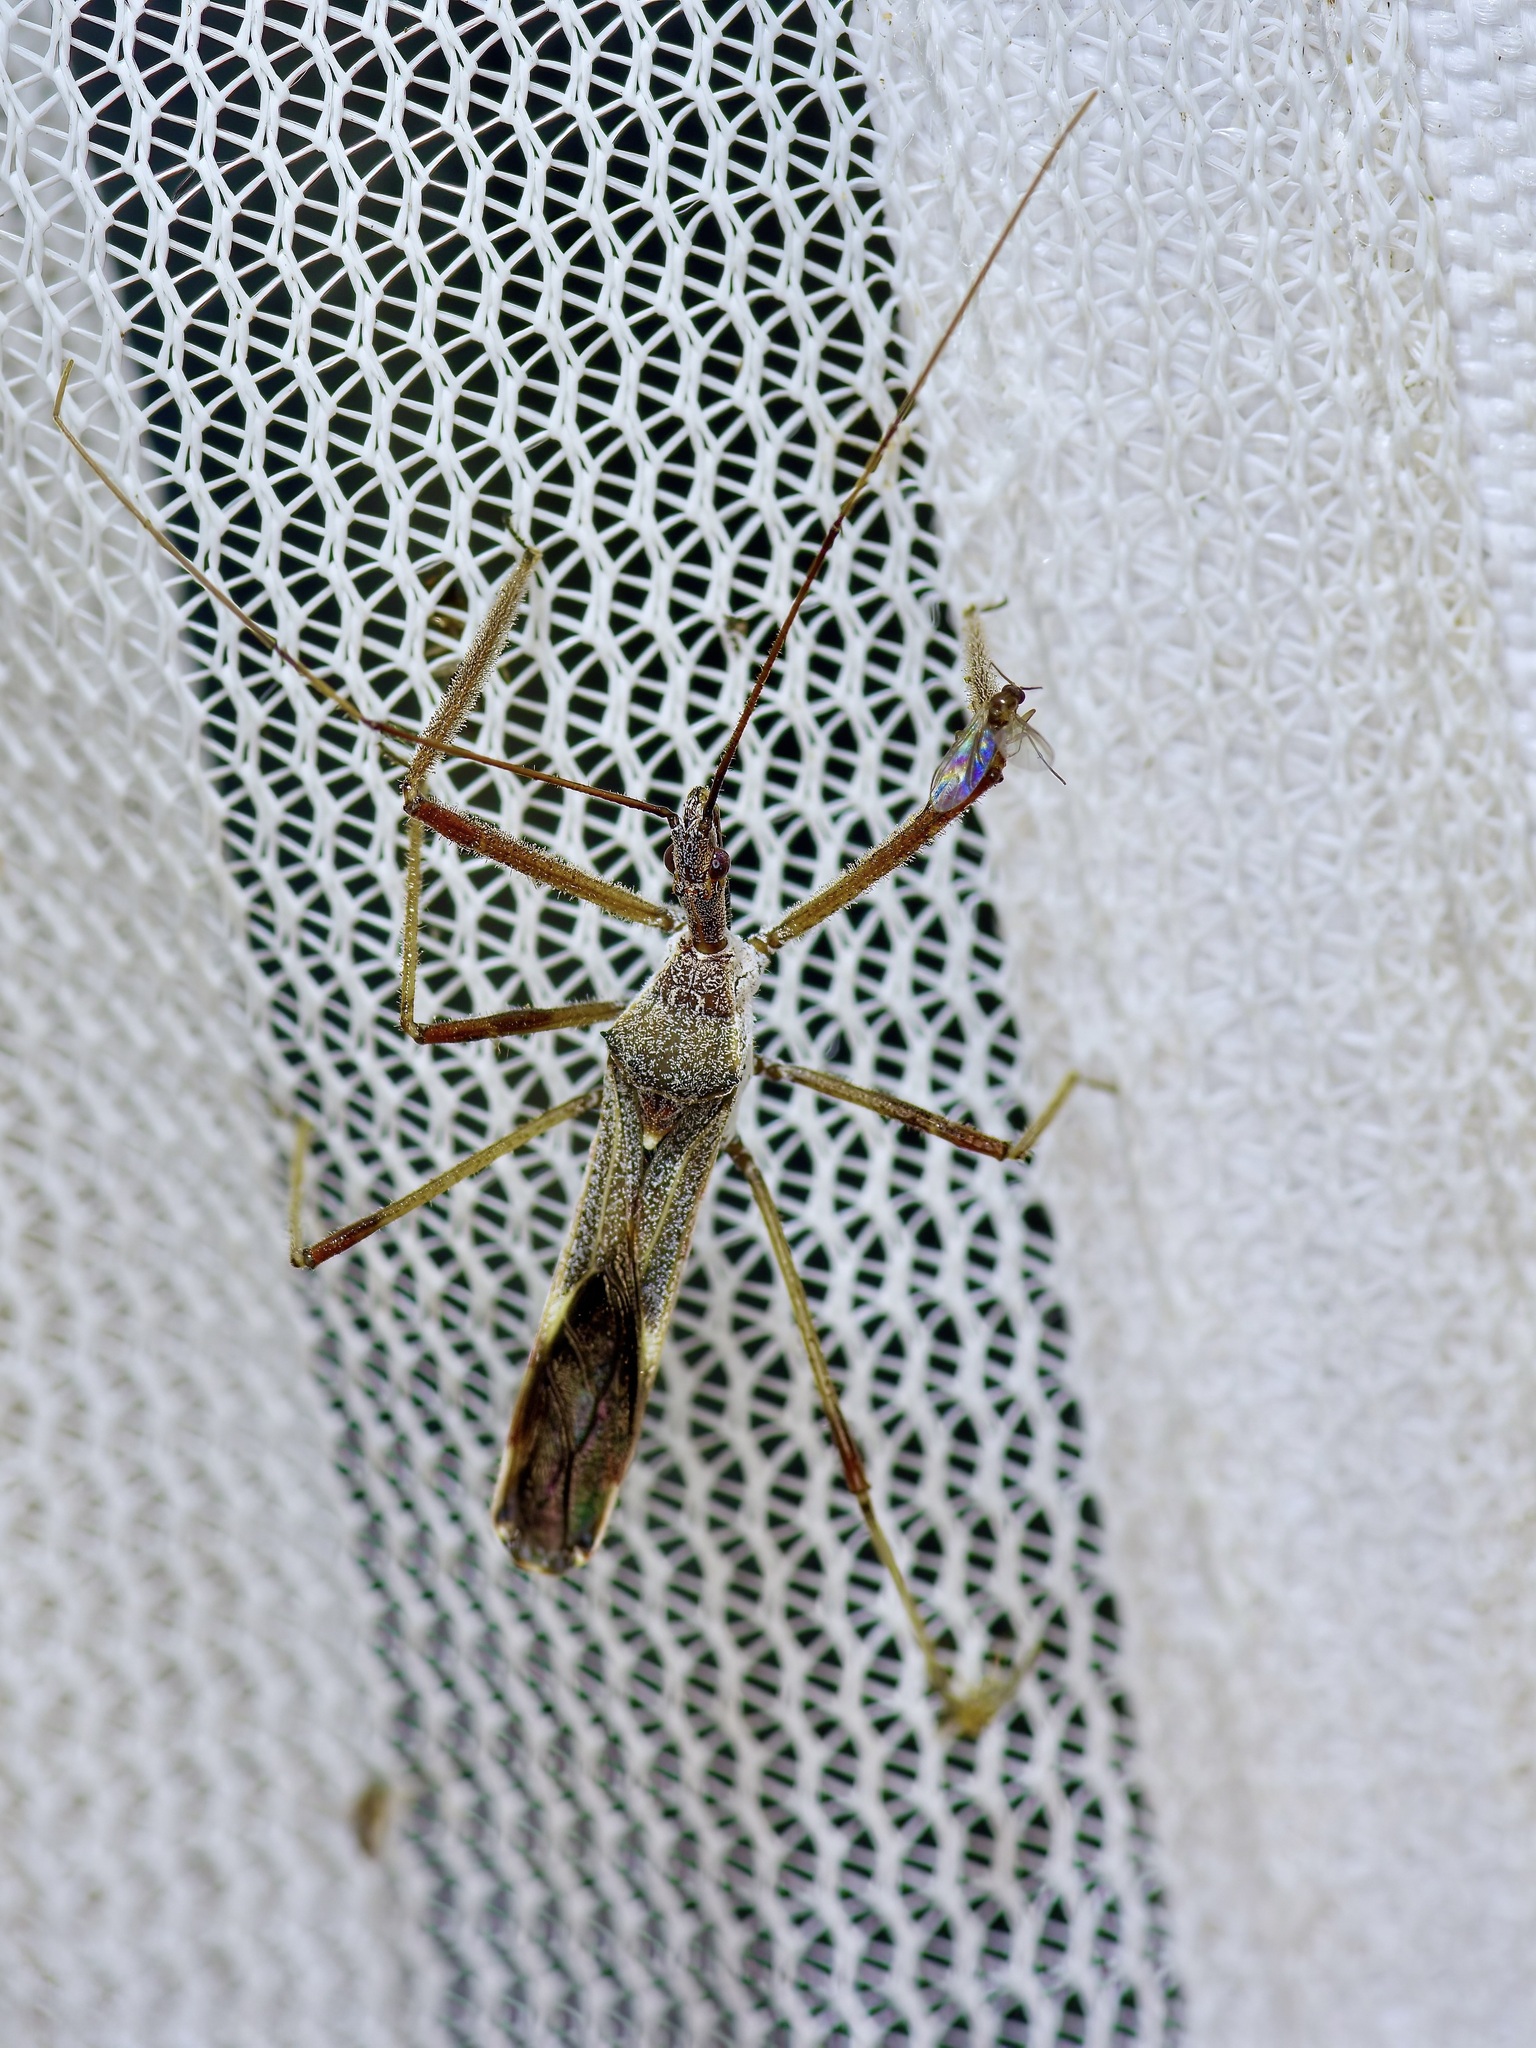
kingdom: Animalia
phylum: Arthropoda
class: Insecta
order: Hemiptera
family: Reduviidae
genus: Zelus
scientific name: Zelus tetracanthus
